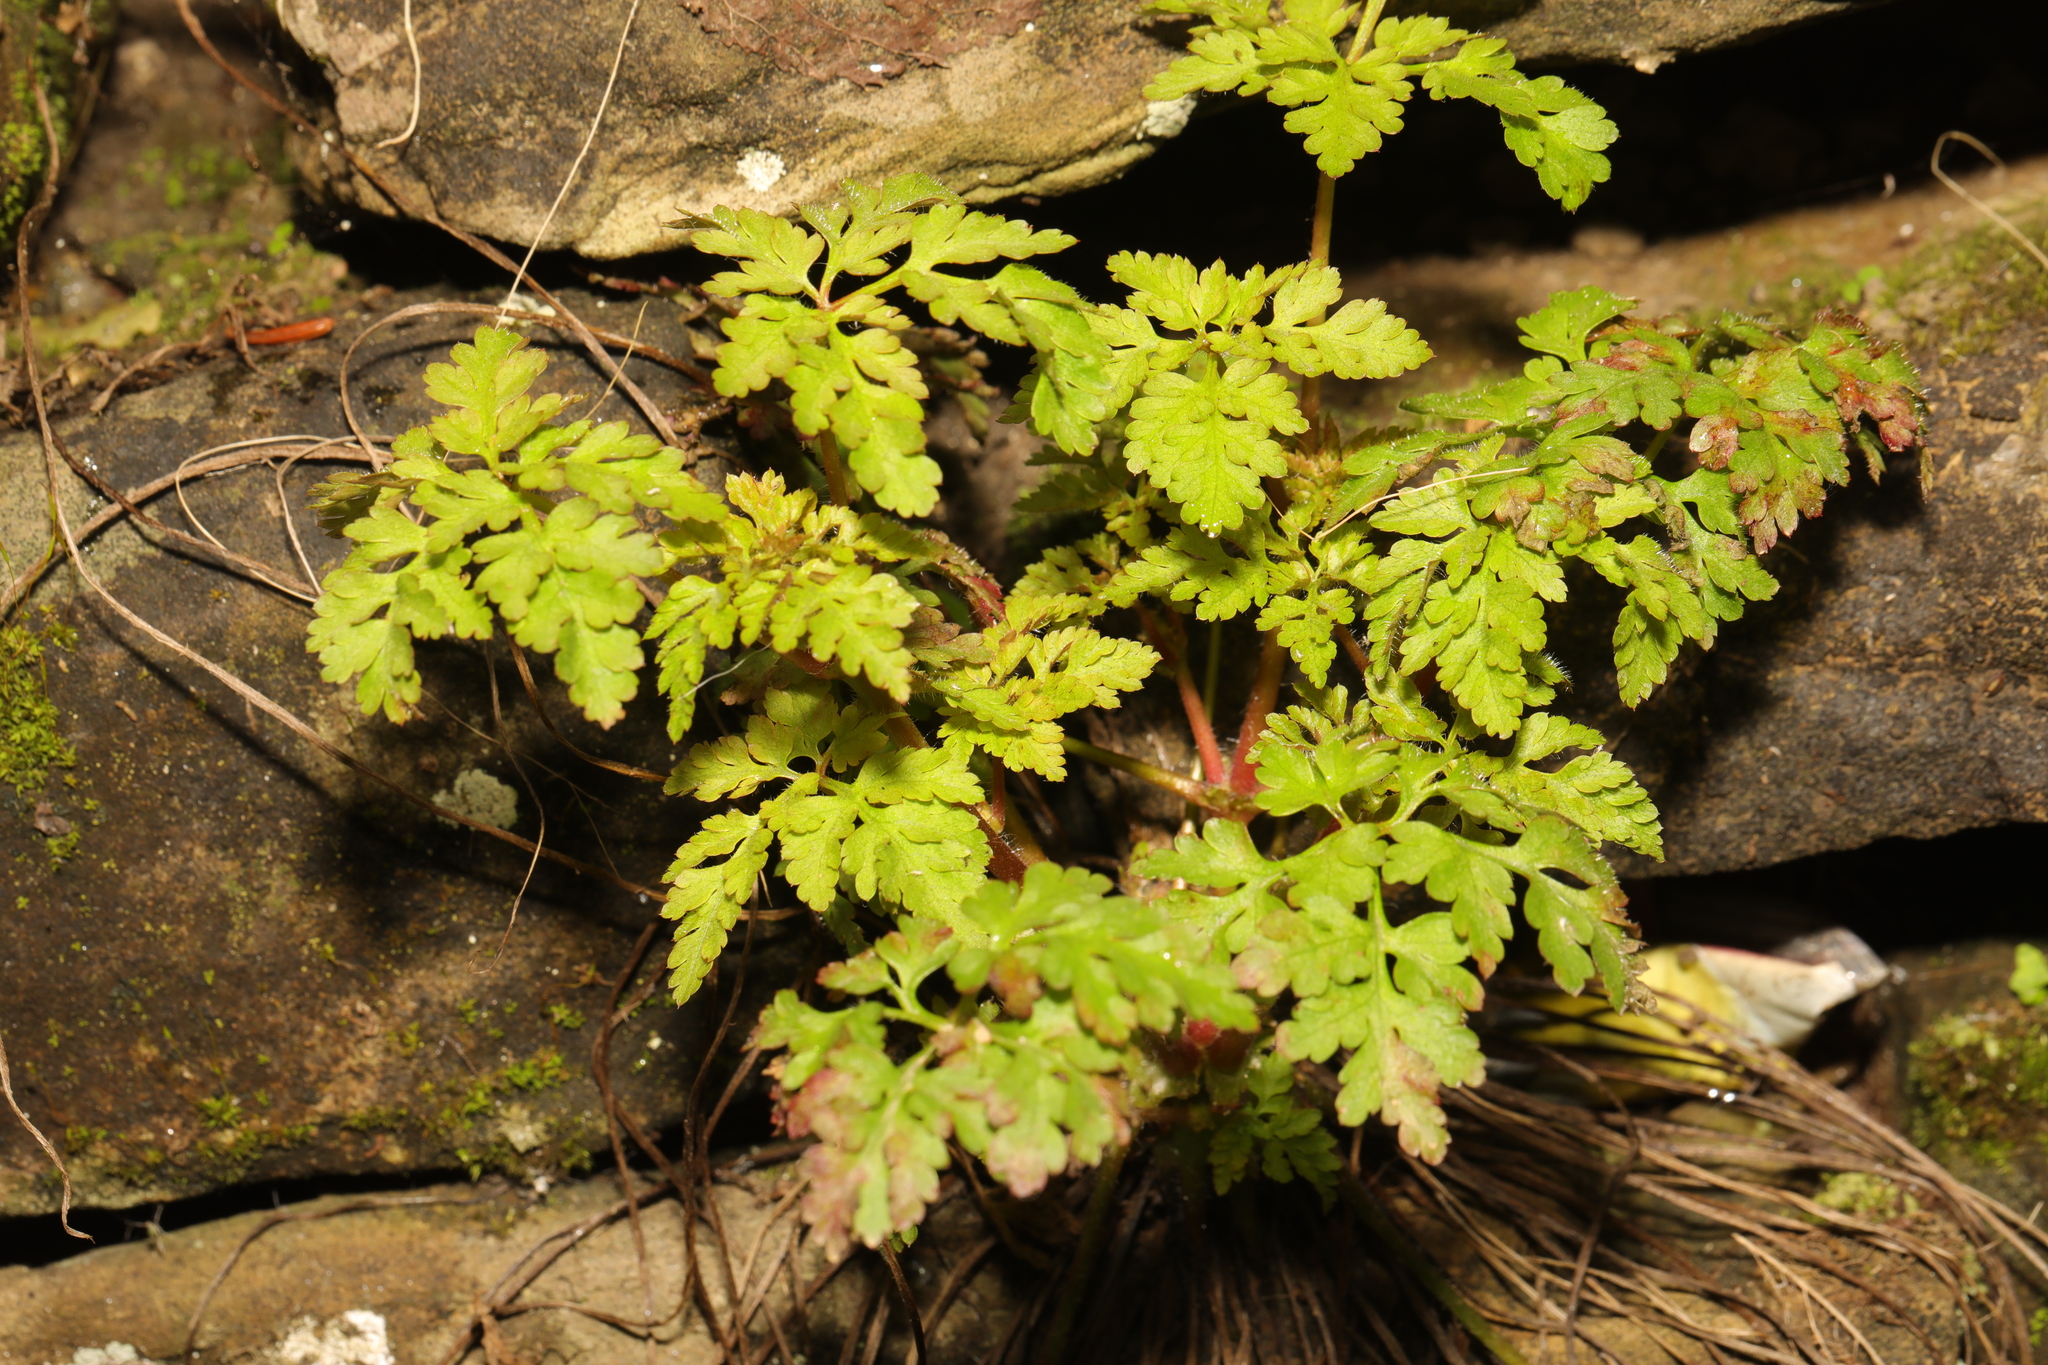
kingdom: Plantae
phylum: Tracheophyta
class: Magnoliopsida
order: Geraniales
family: Geraniaceae
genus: Geranium
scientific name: Geranium robertianum
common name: Herb-robert
